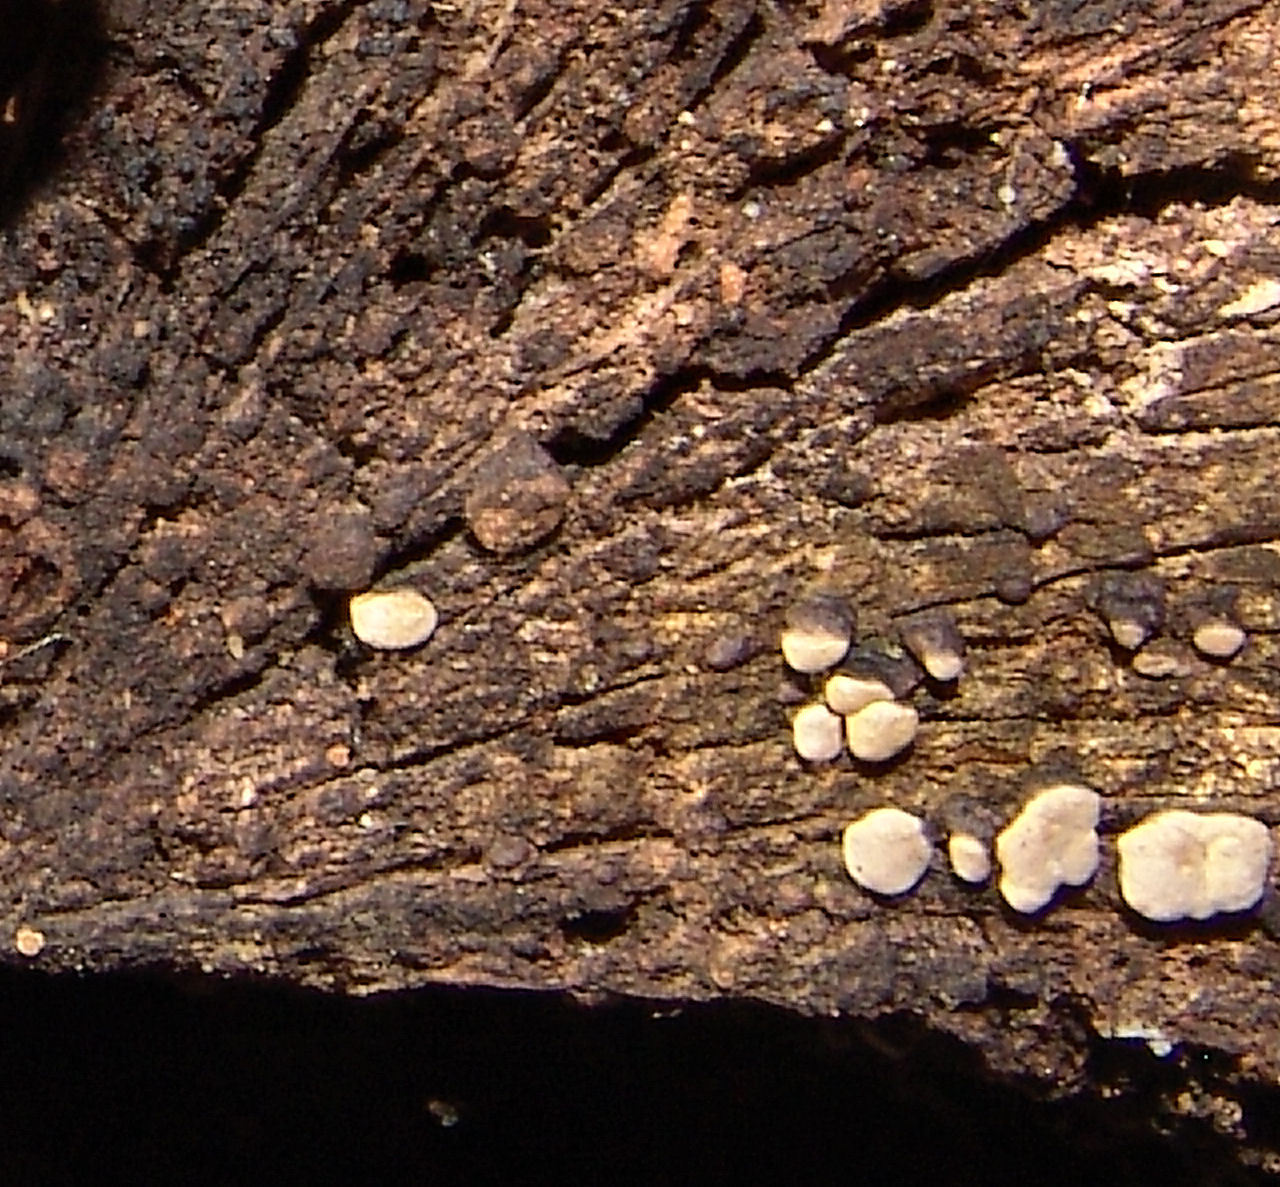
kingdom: Fungi
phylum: Basidiomycota
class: Agaricomycetes
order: Russulales
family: Stereaceae
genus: Xylobolus
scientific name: Xylobolus frustulatus
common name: Ceramic parchment
